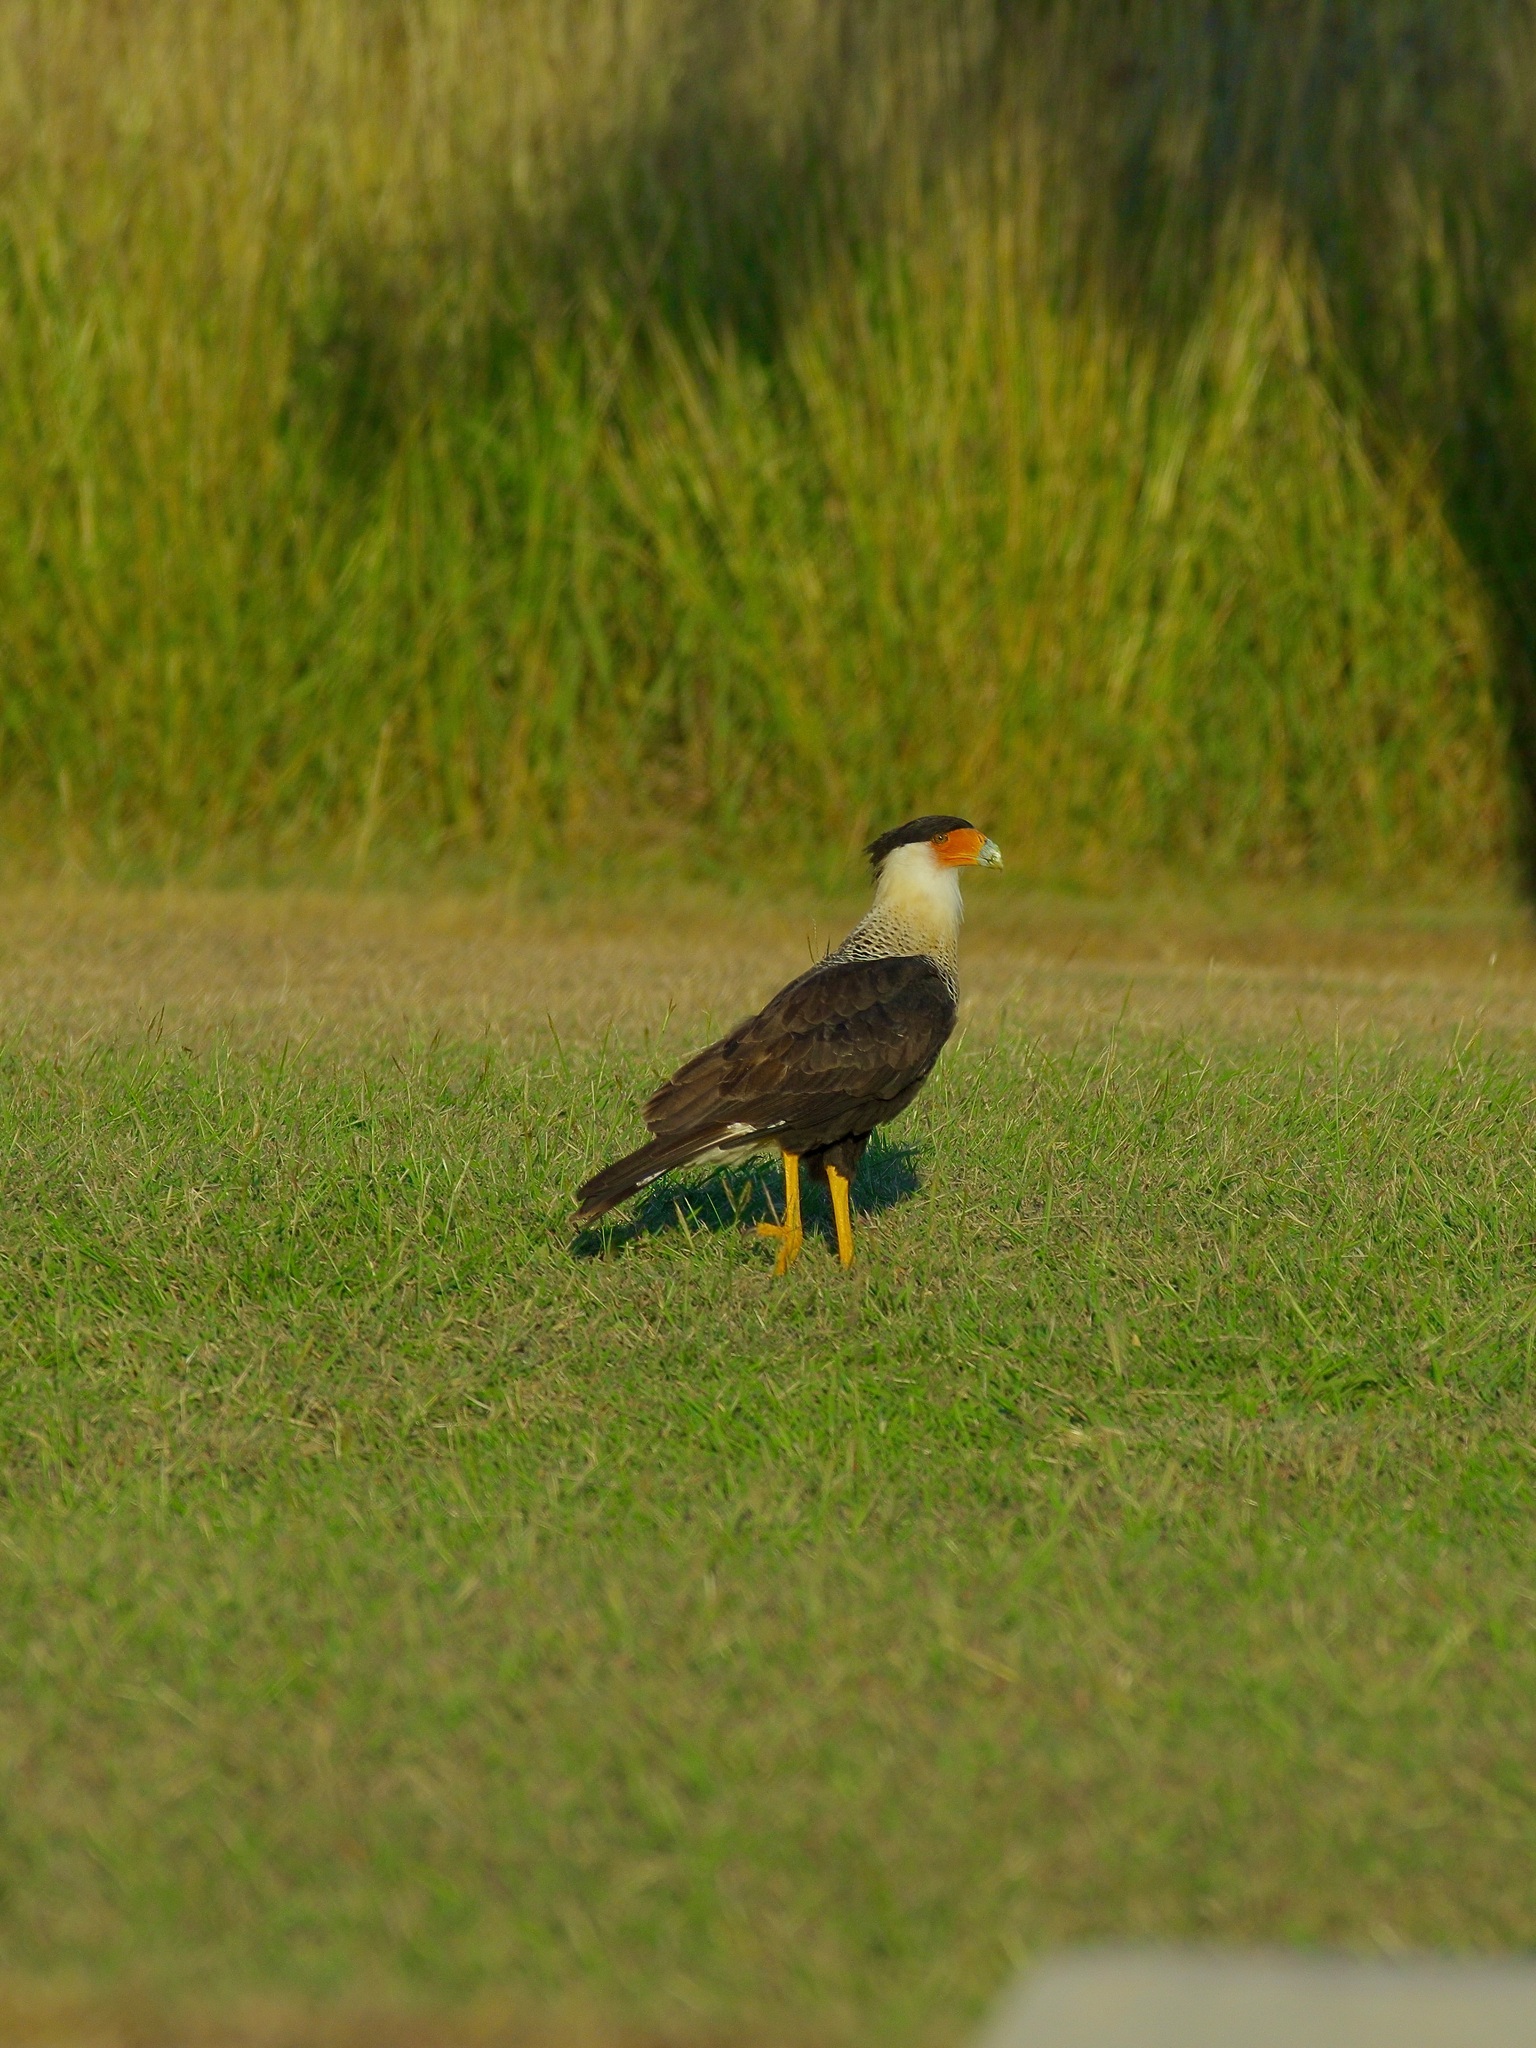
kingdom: Animalia
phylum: Chordata
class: Aves
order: Falconiformes
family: Falconidae
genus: Caracara
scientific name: Caracara plancus
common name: Southern caracara
